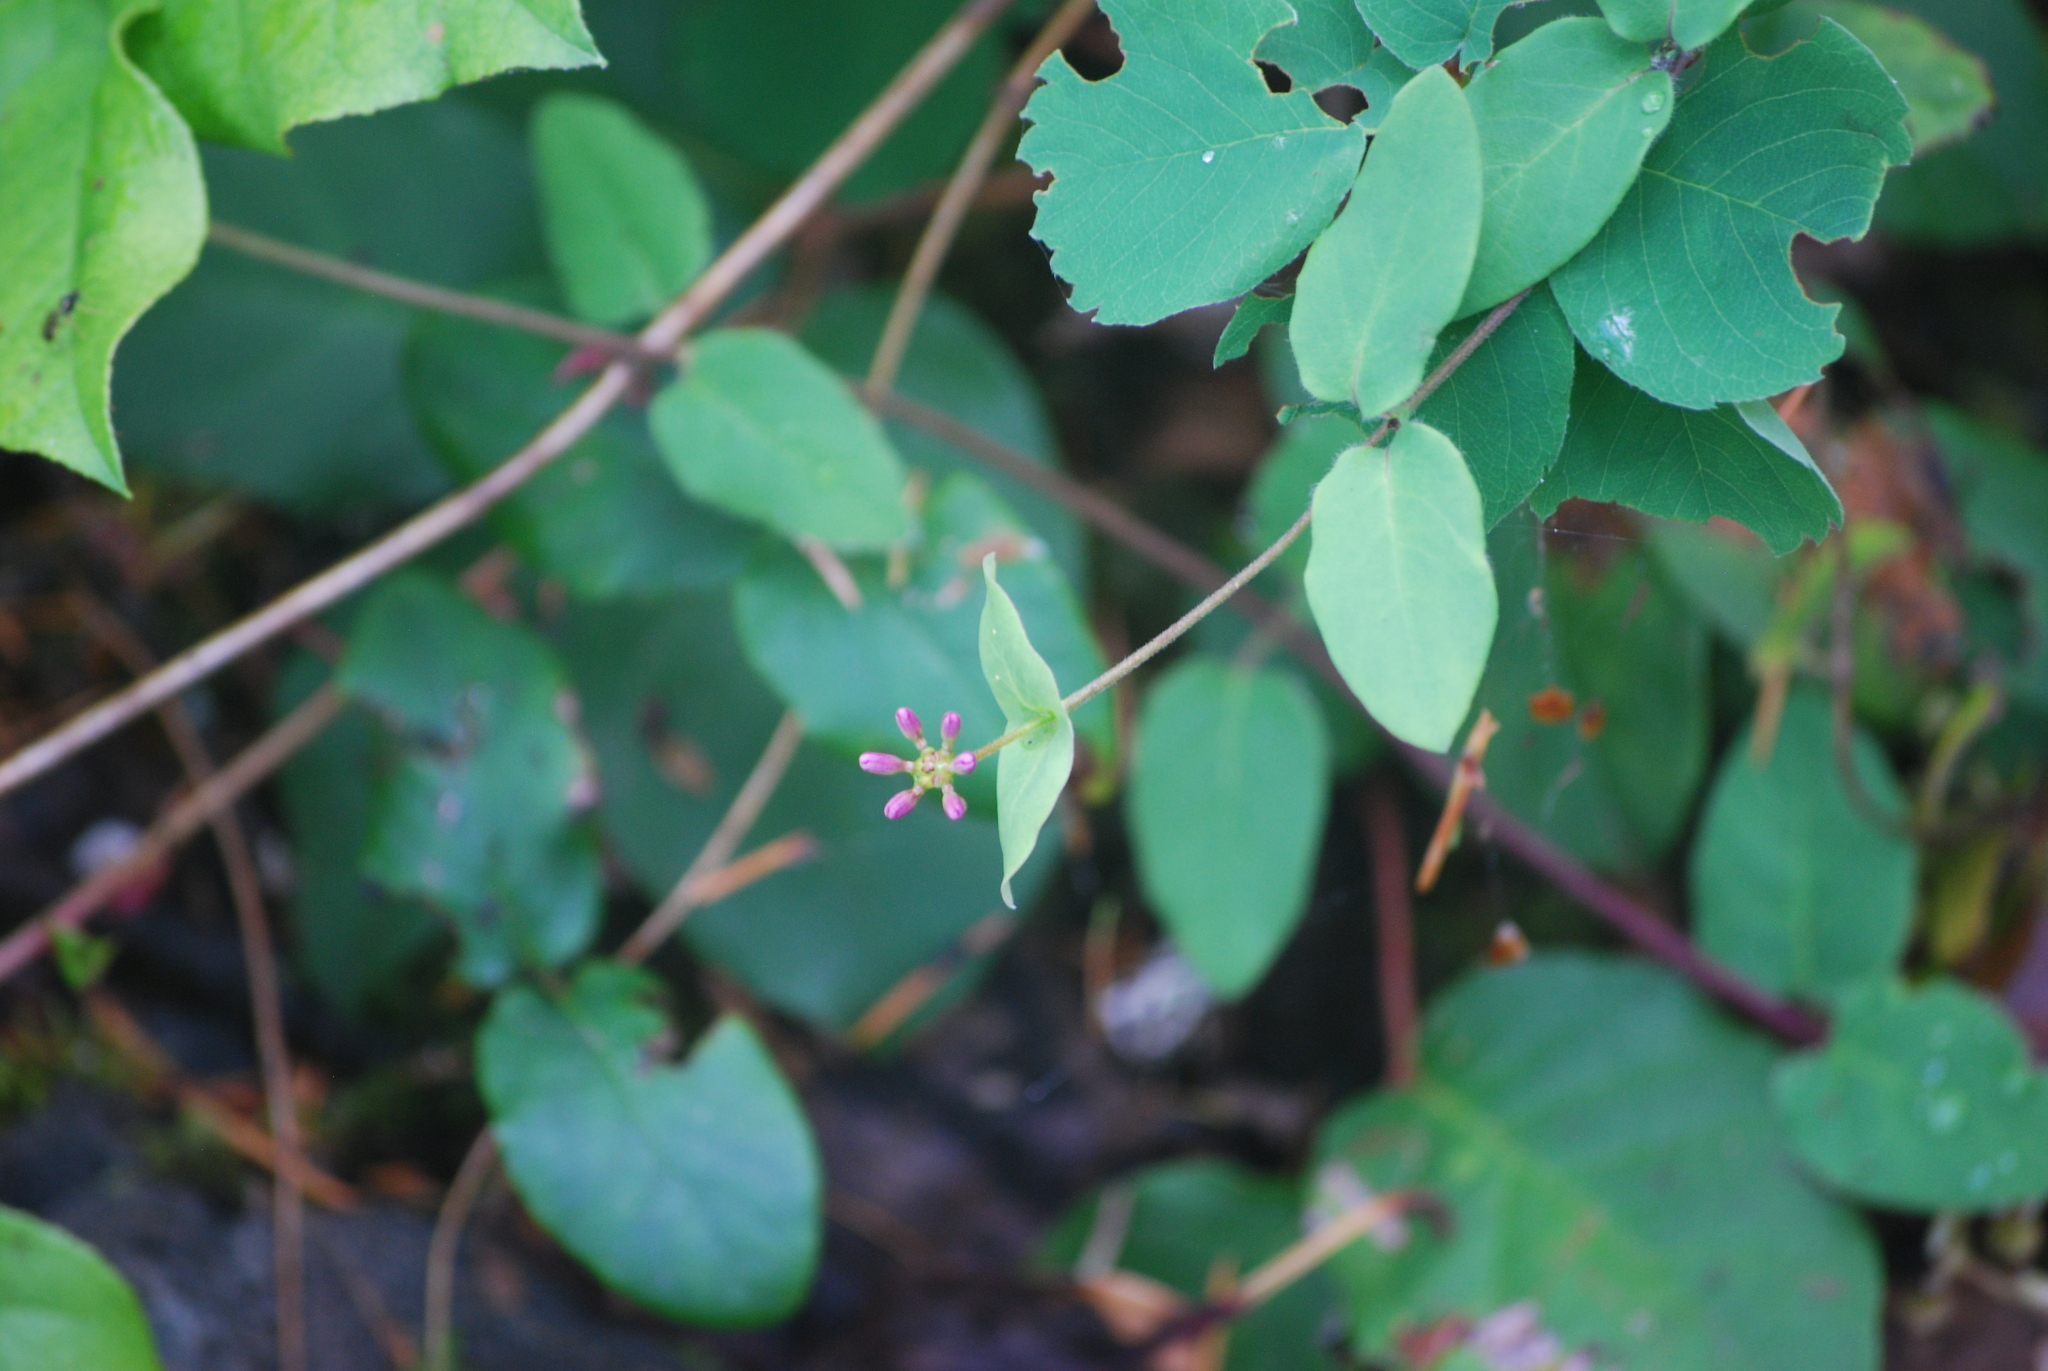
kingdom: Plantae
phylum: Tracheophyta
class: Magnoliopsida
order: Dipsacales
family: Caprifoliaceae
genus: Lonicera
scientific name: Lonicera hispidula
